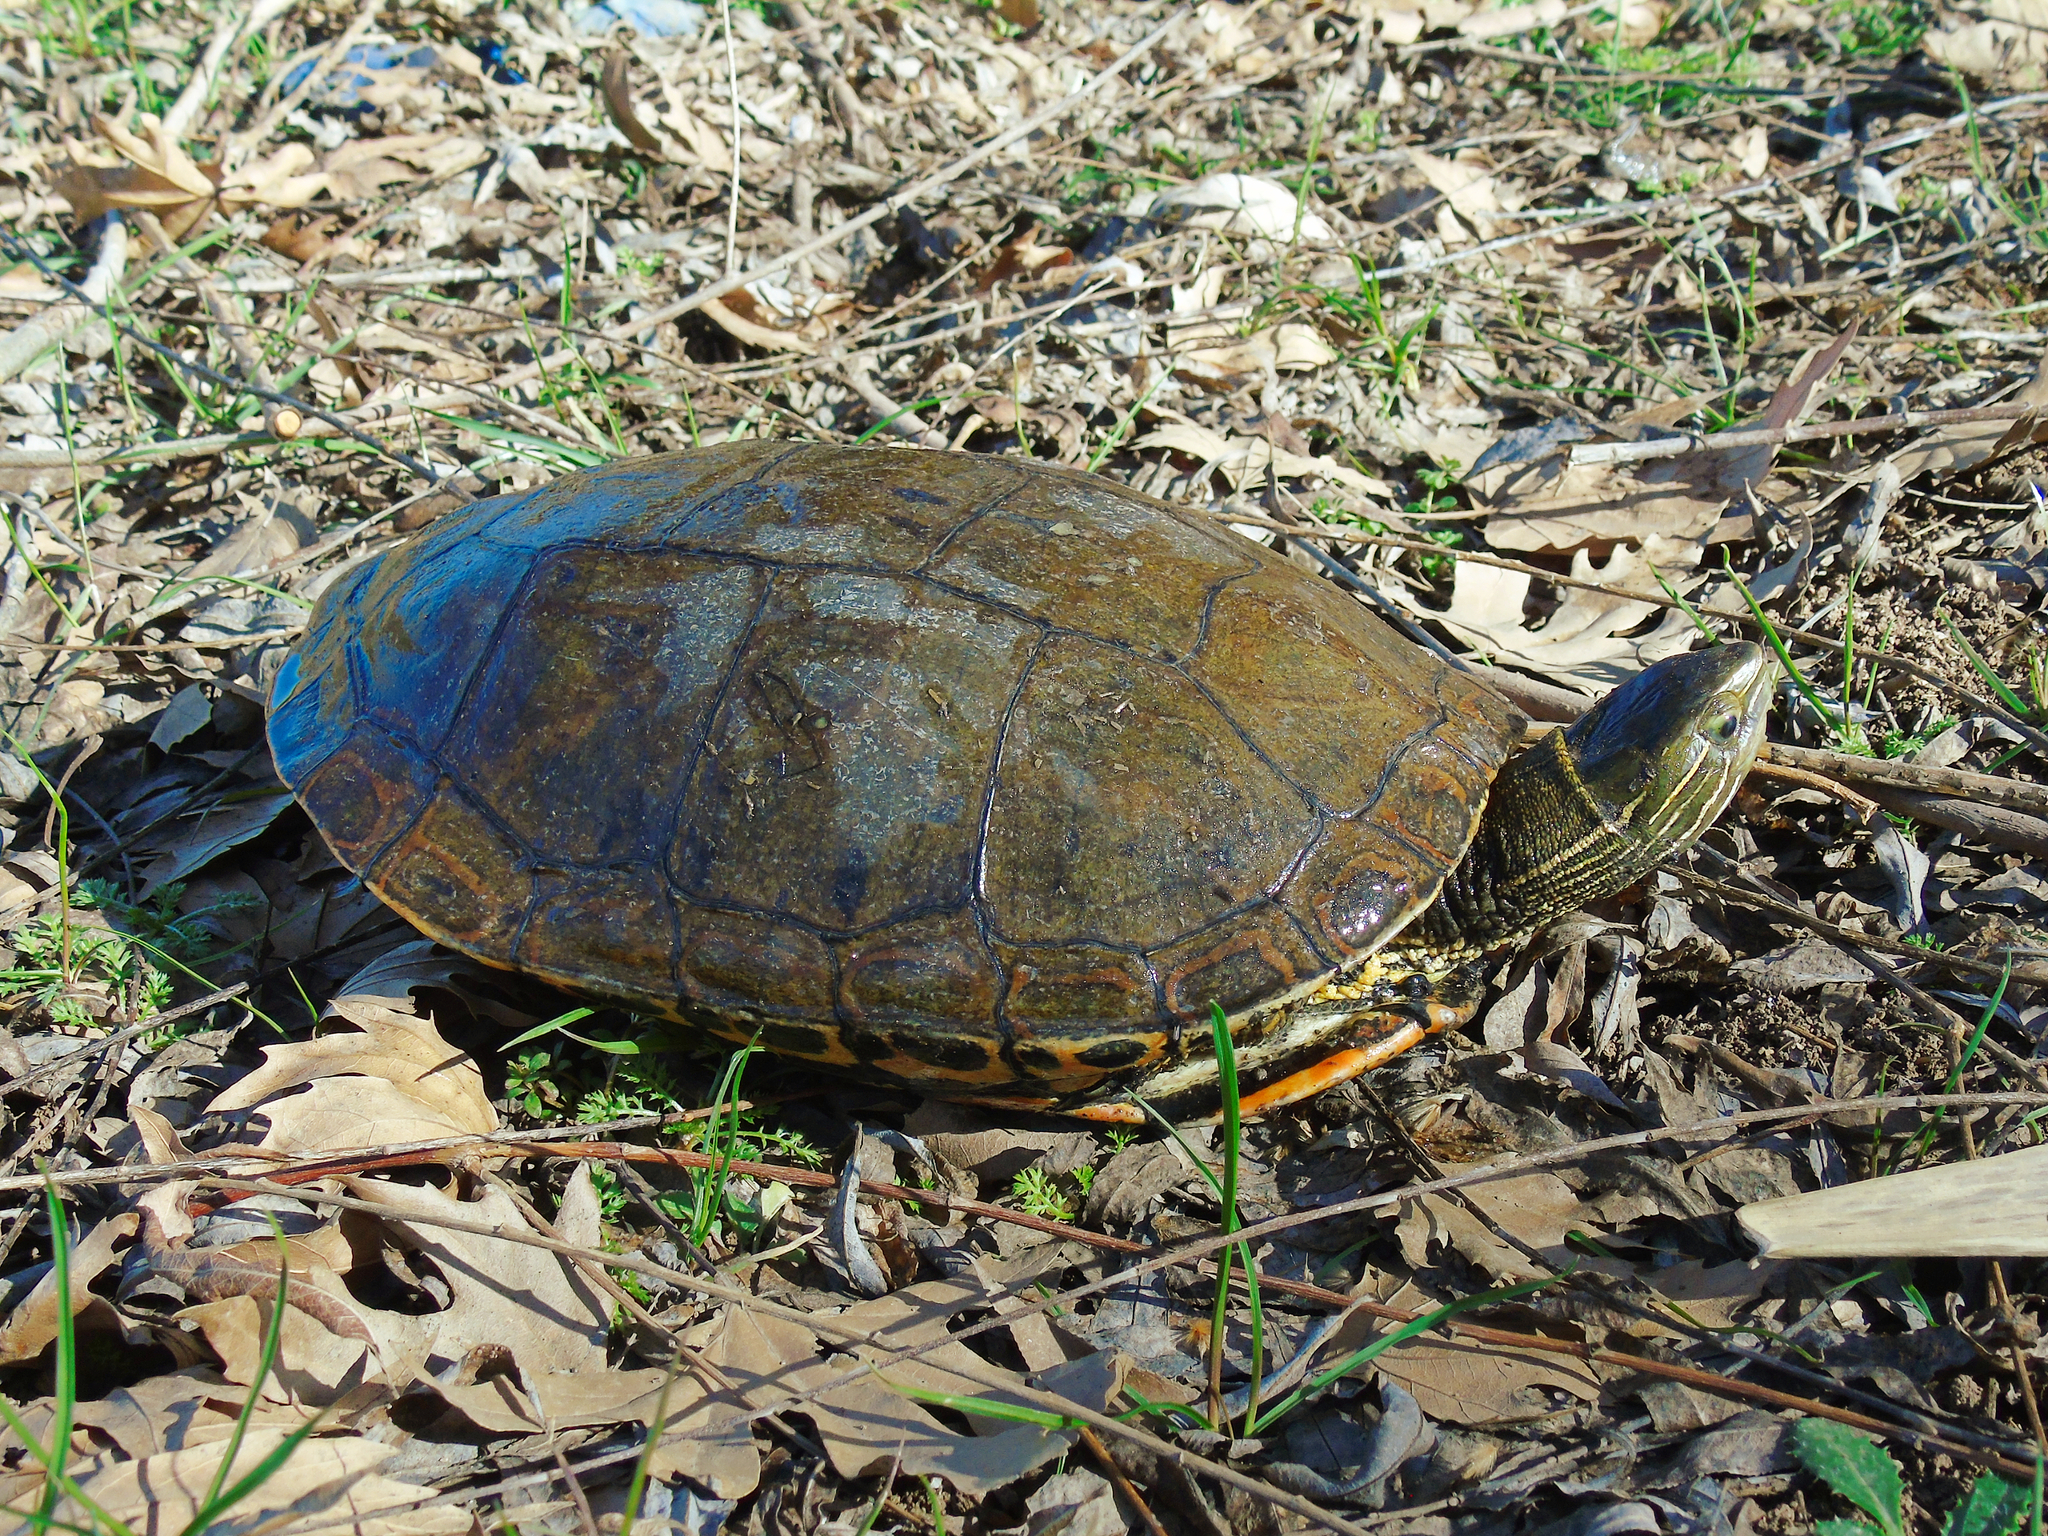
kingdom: Animalia
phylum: Chordata
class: Testudines
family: Geoemydidae
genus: Mauremys
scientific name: Mauremys caspica
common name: Caspian turtle
